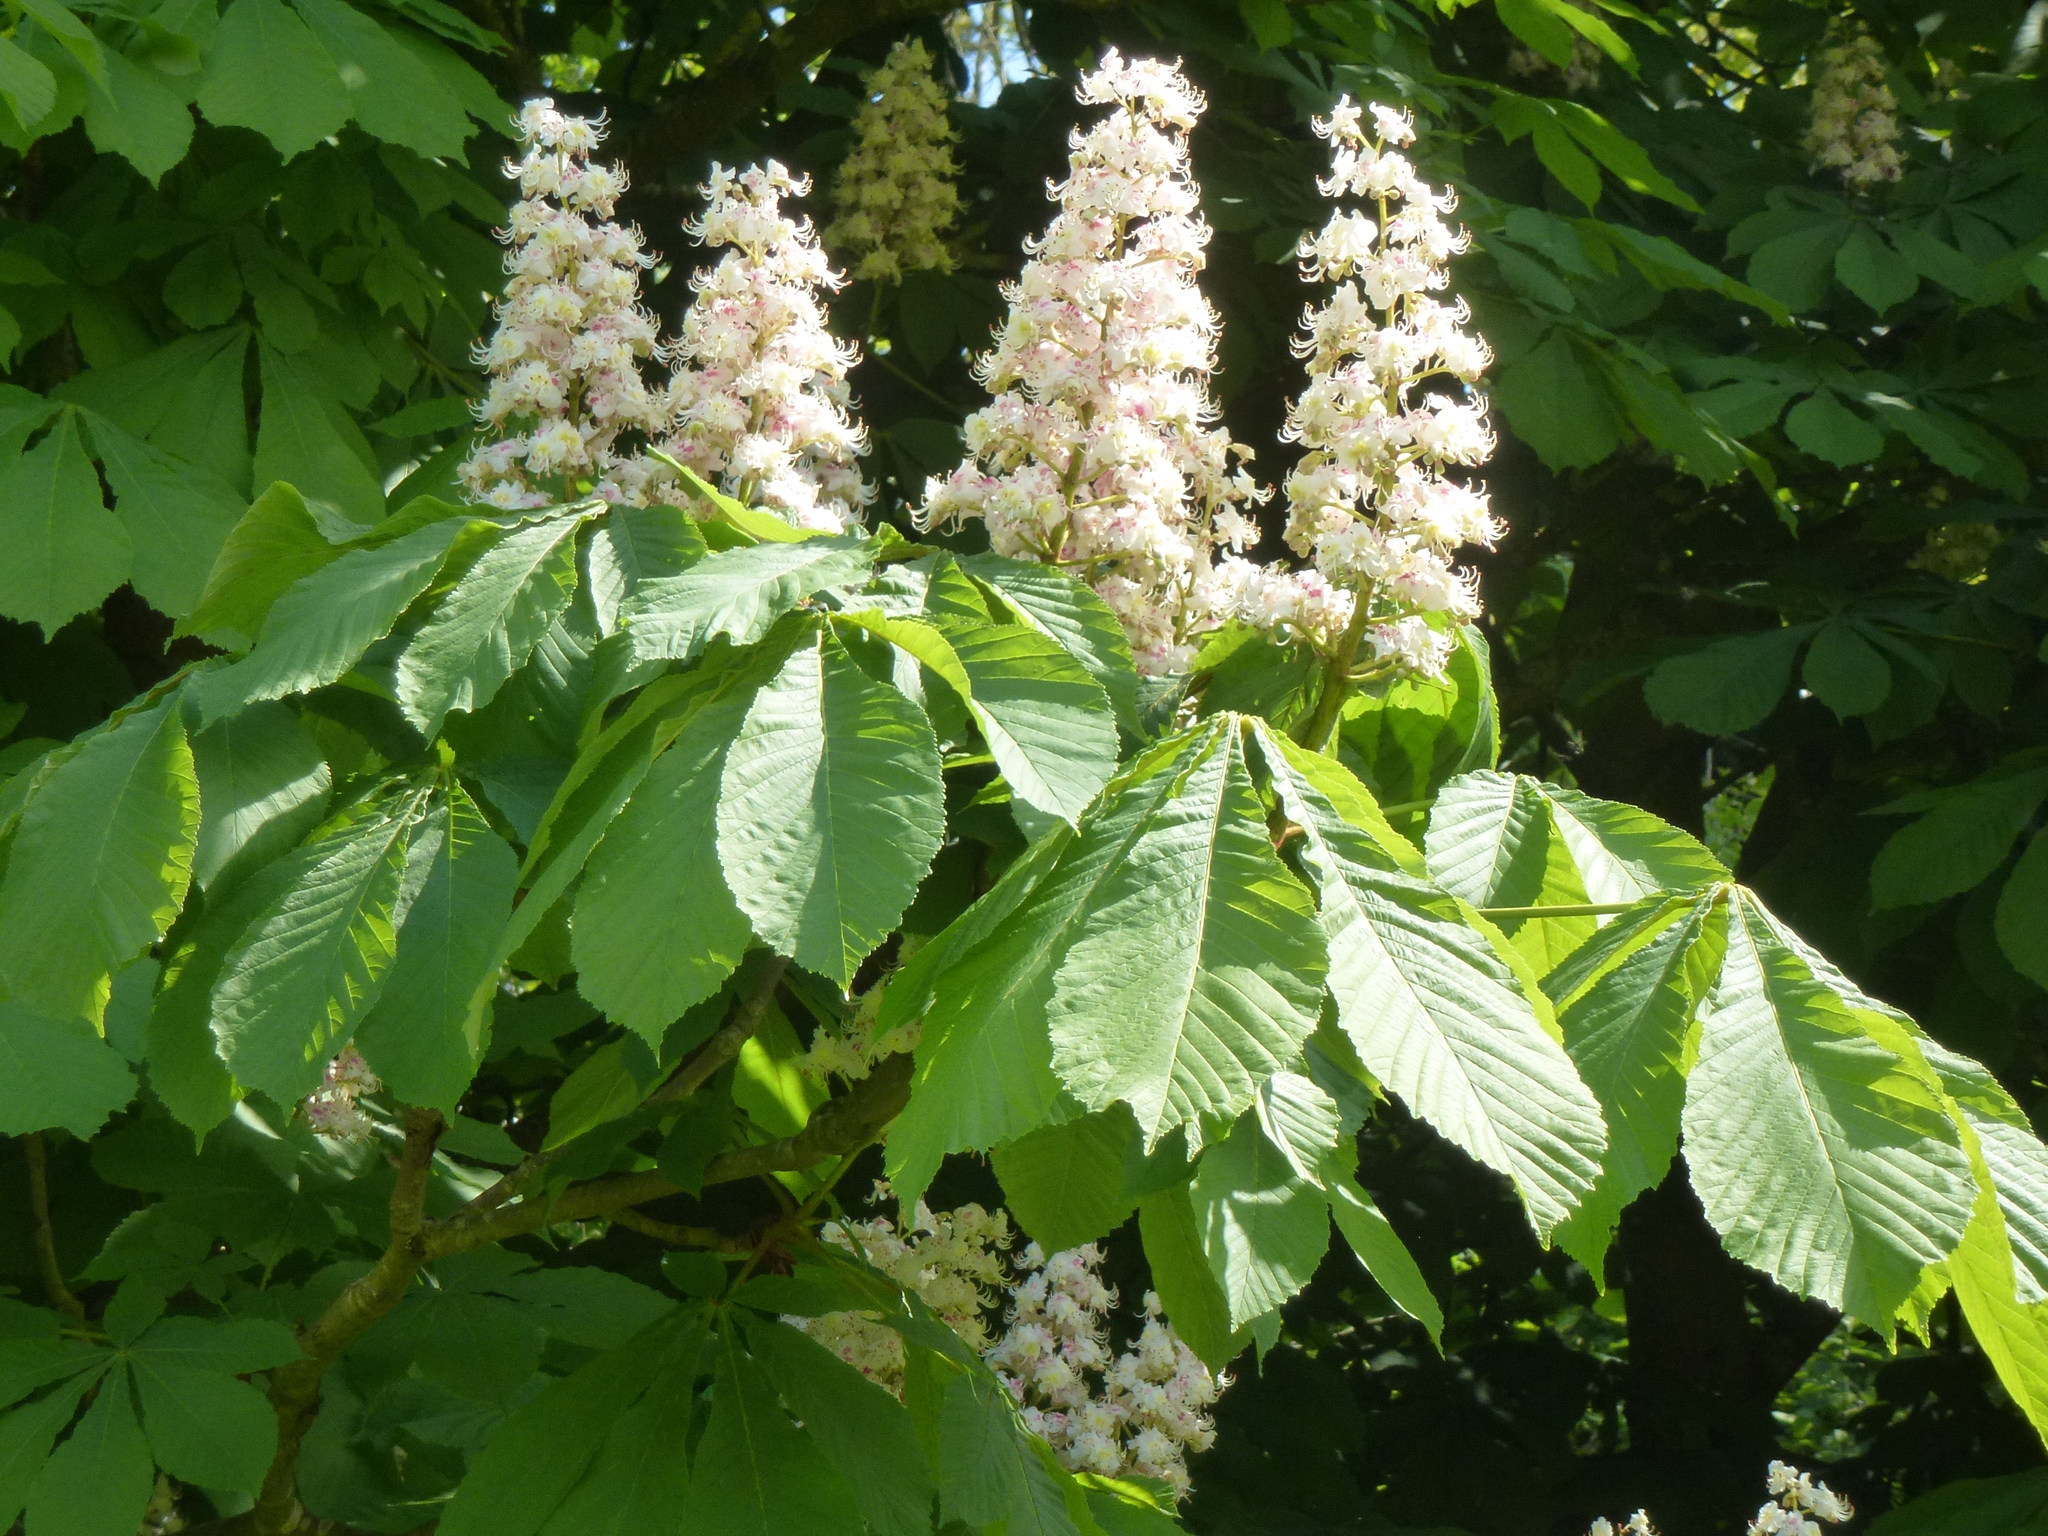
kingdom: Plantae
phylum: Tracheophyta
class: Magnoliopsida
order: Sapindales
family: Sapindaceae
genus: Aesculus
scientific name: Aesculus hippocastanum
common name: Horse-chestnut
